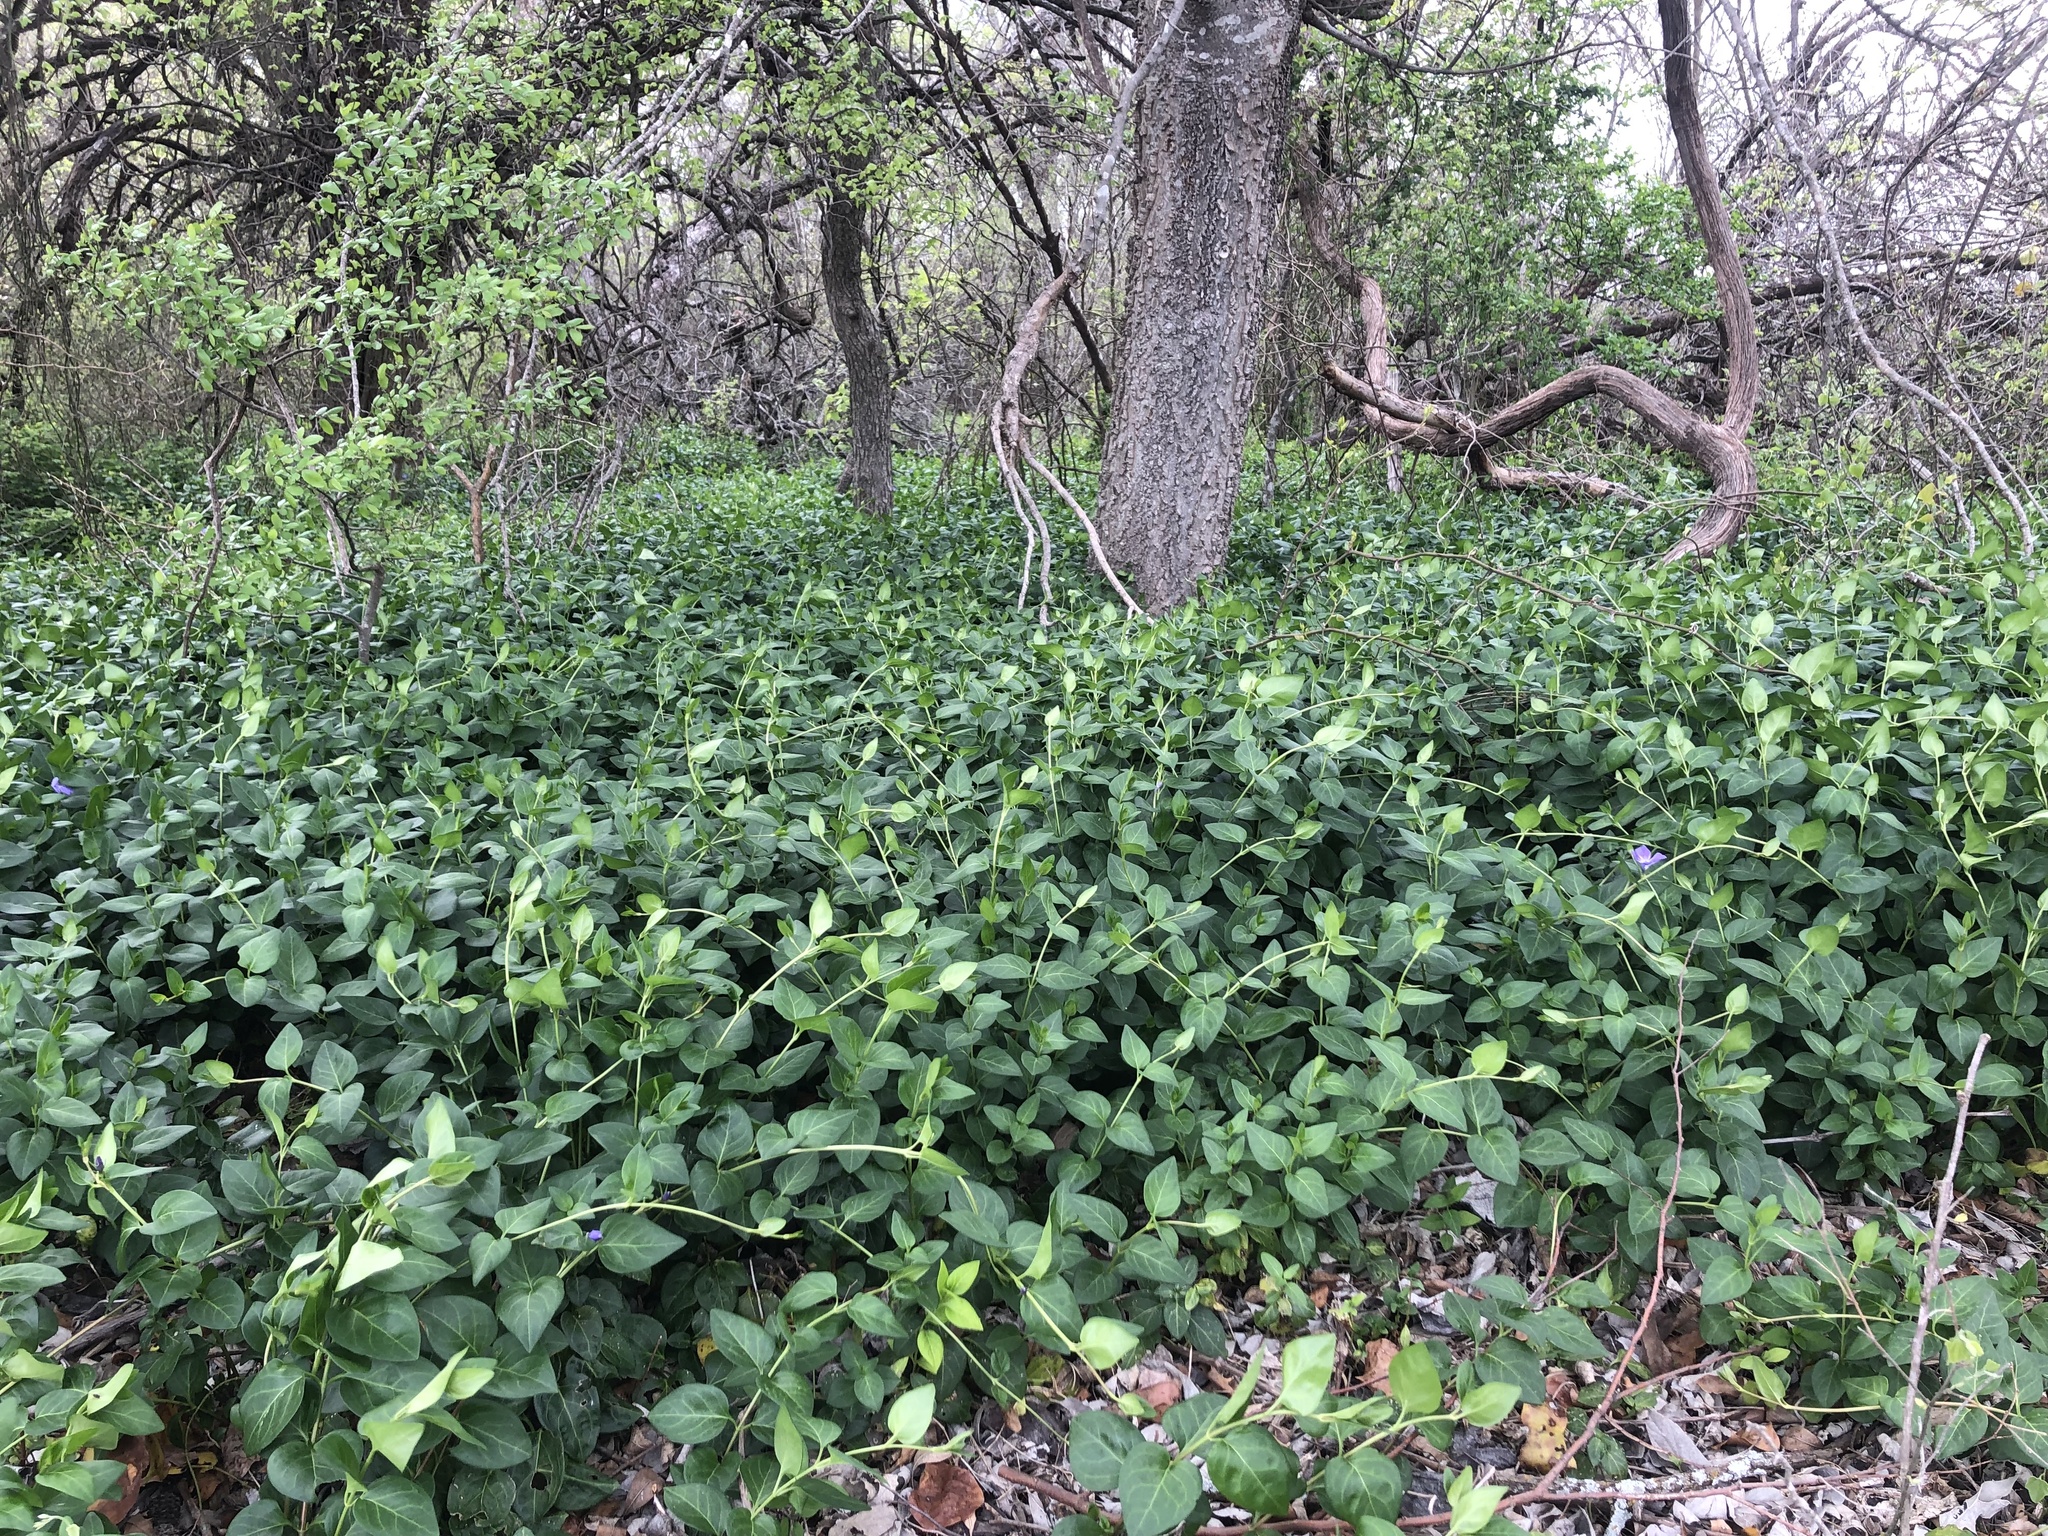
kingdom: Plantae
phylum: Tracheophyta
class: Magnoliopsida
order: Gentianales
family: Apocynaceae
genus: Vinca
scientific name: Vinca major
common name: Greater periwinkle
